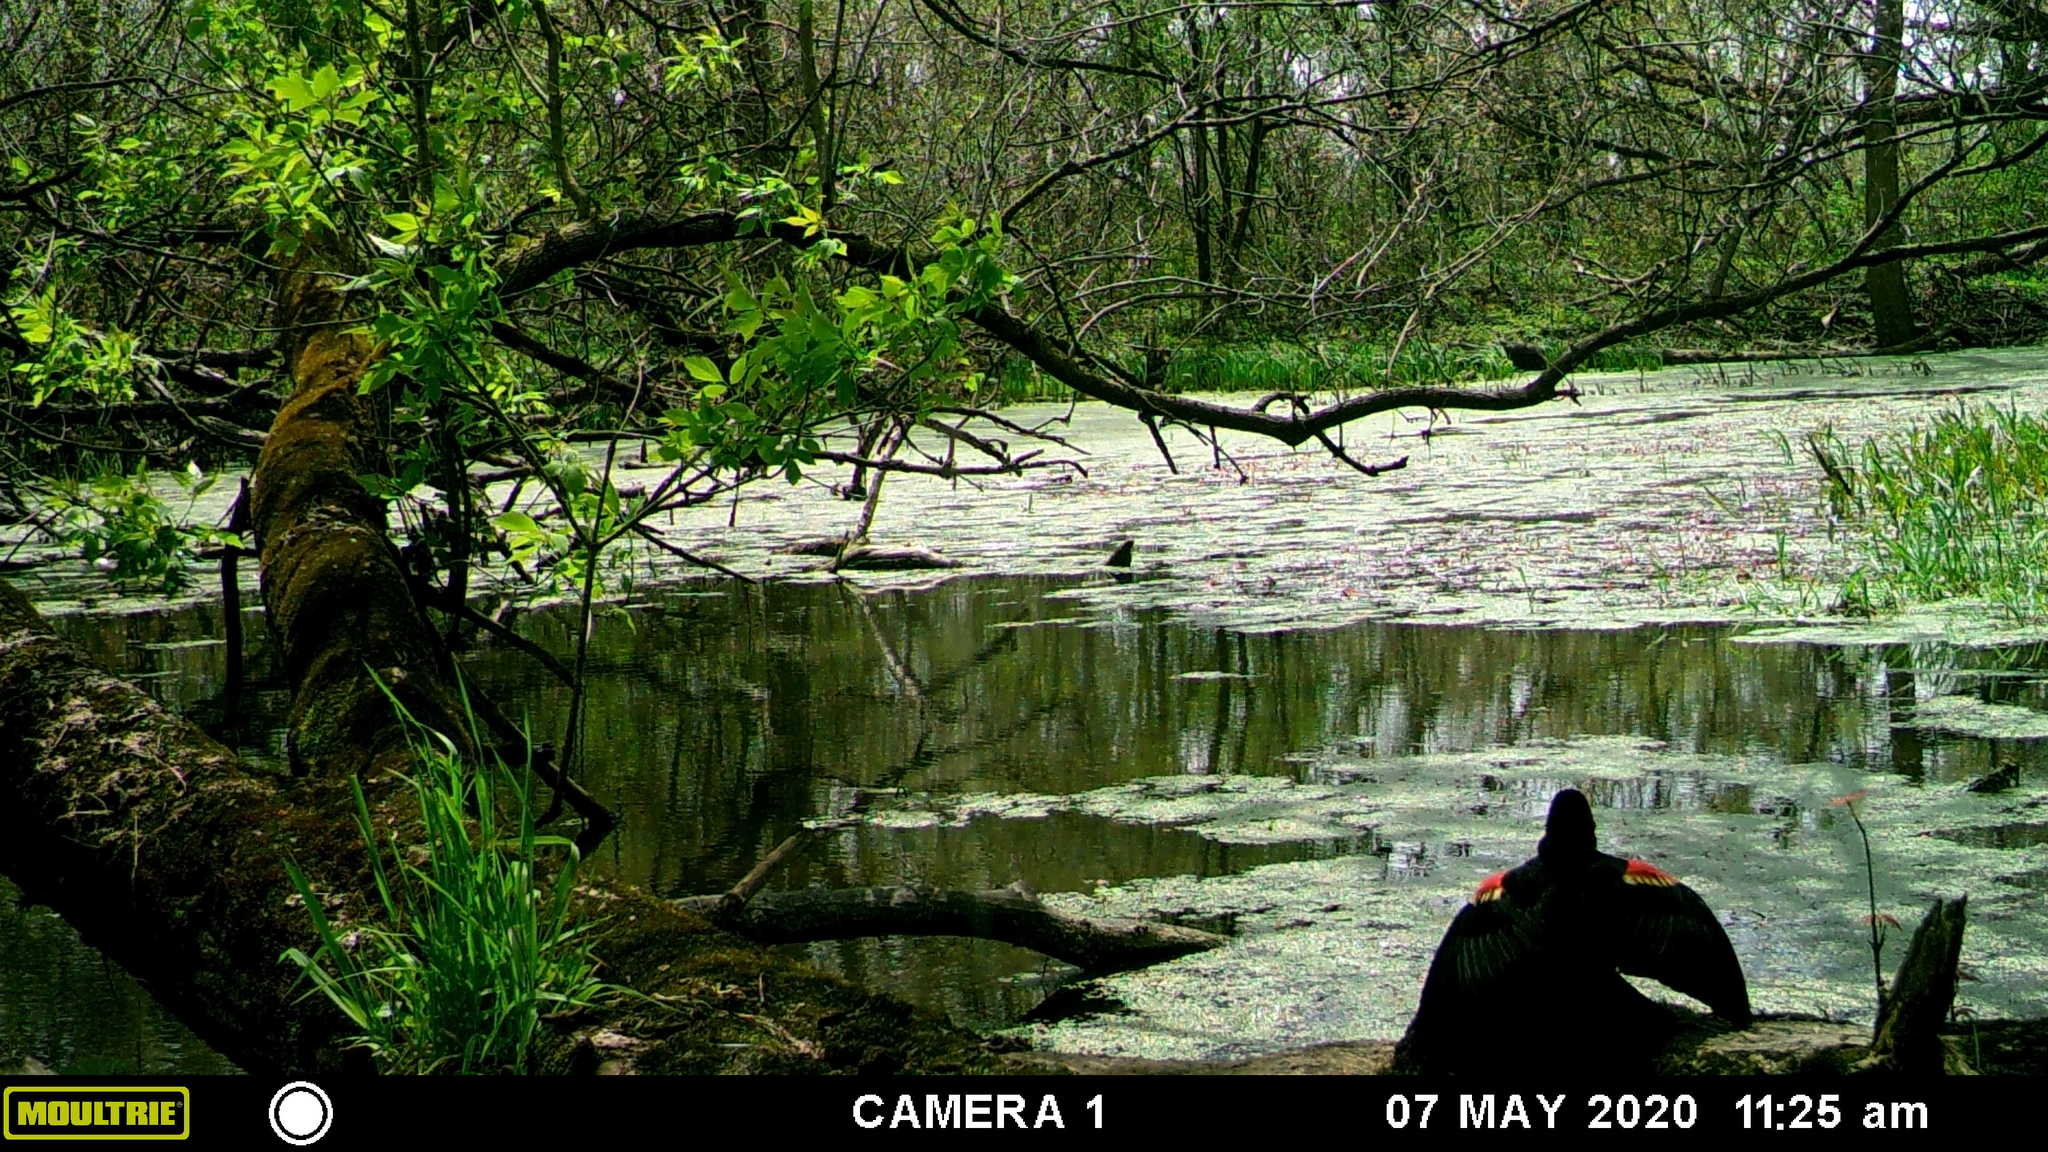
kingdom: Animalia
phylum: Chordata
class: Aves
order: Passeriformes
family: Icteridae
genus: Agelaius
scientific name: Agelaius phoeniceus
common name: Red-winged blackbird
